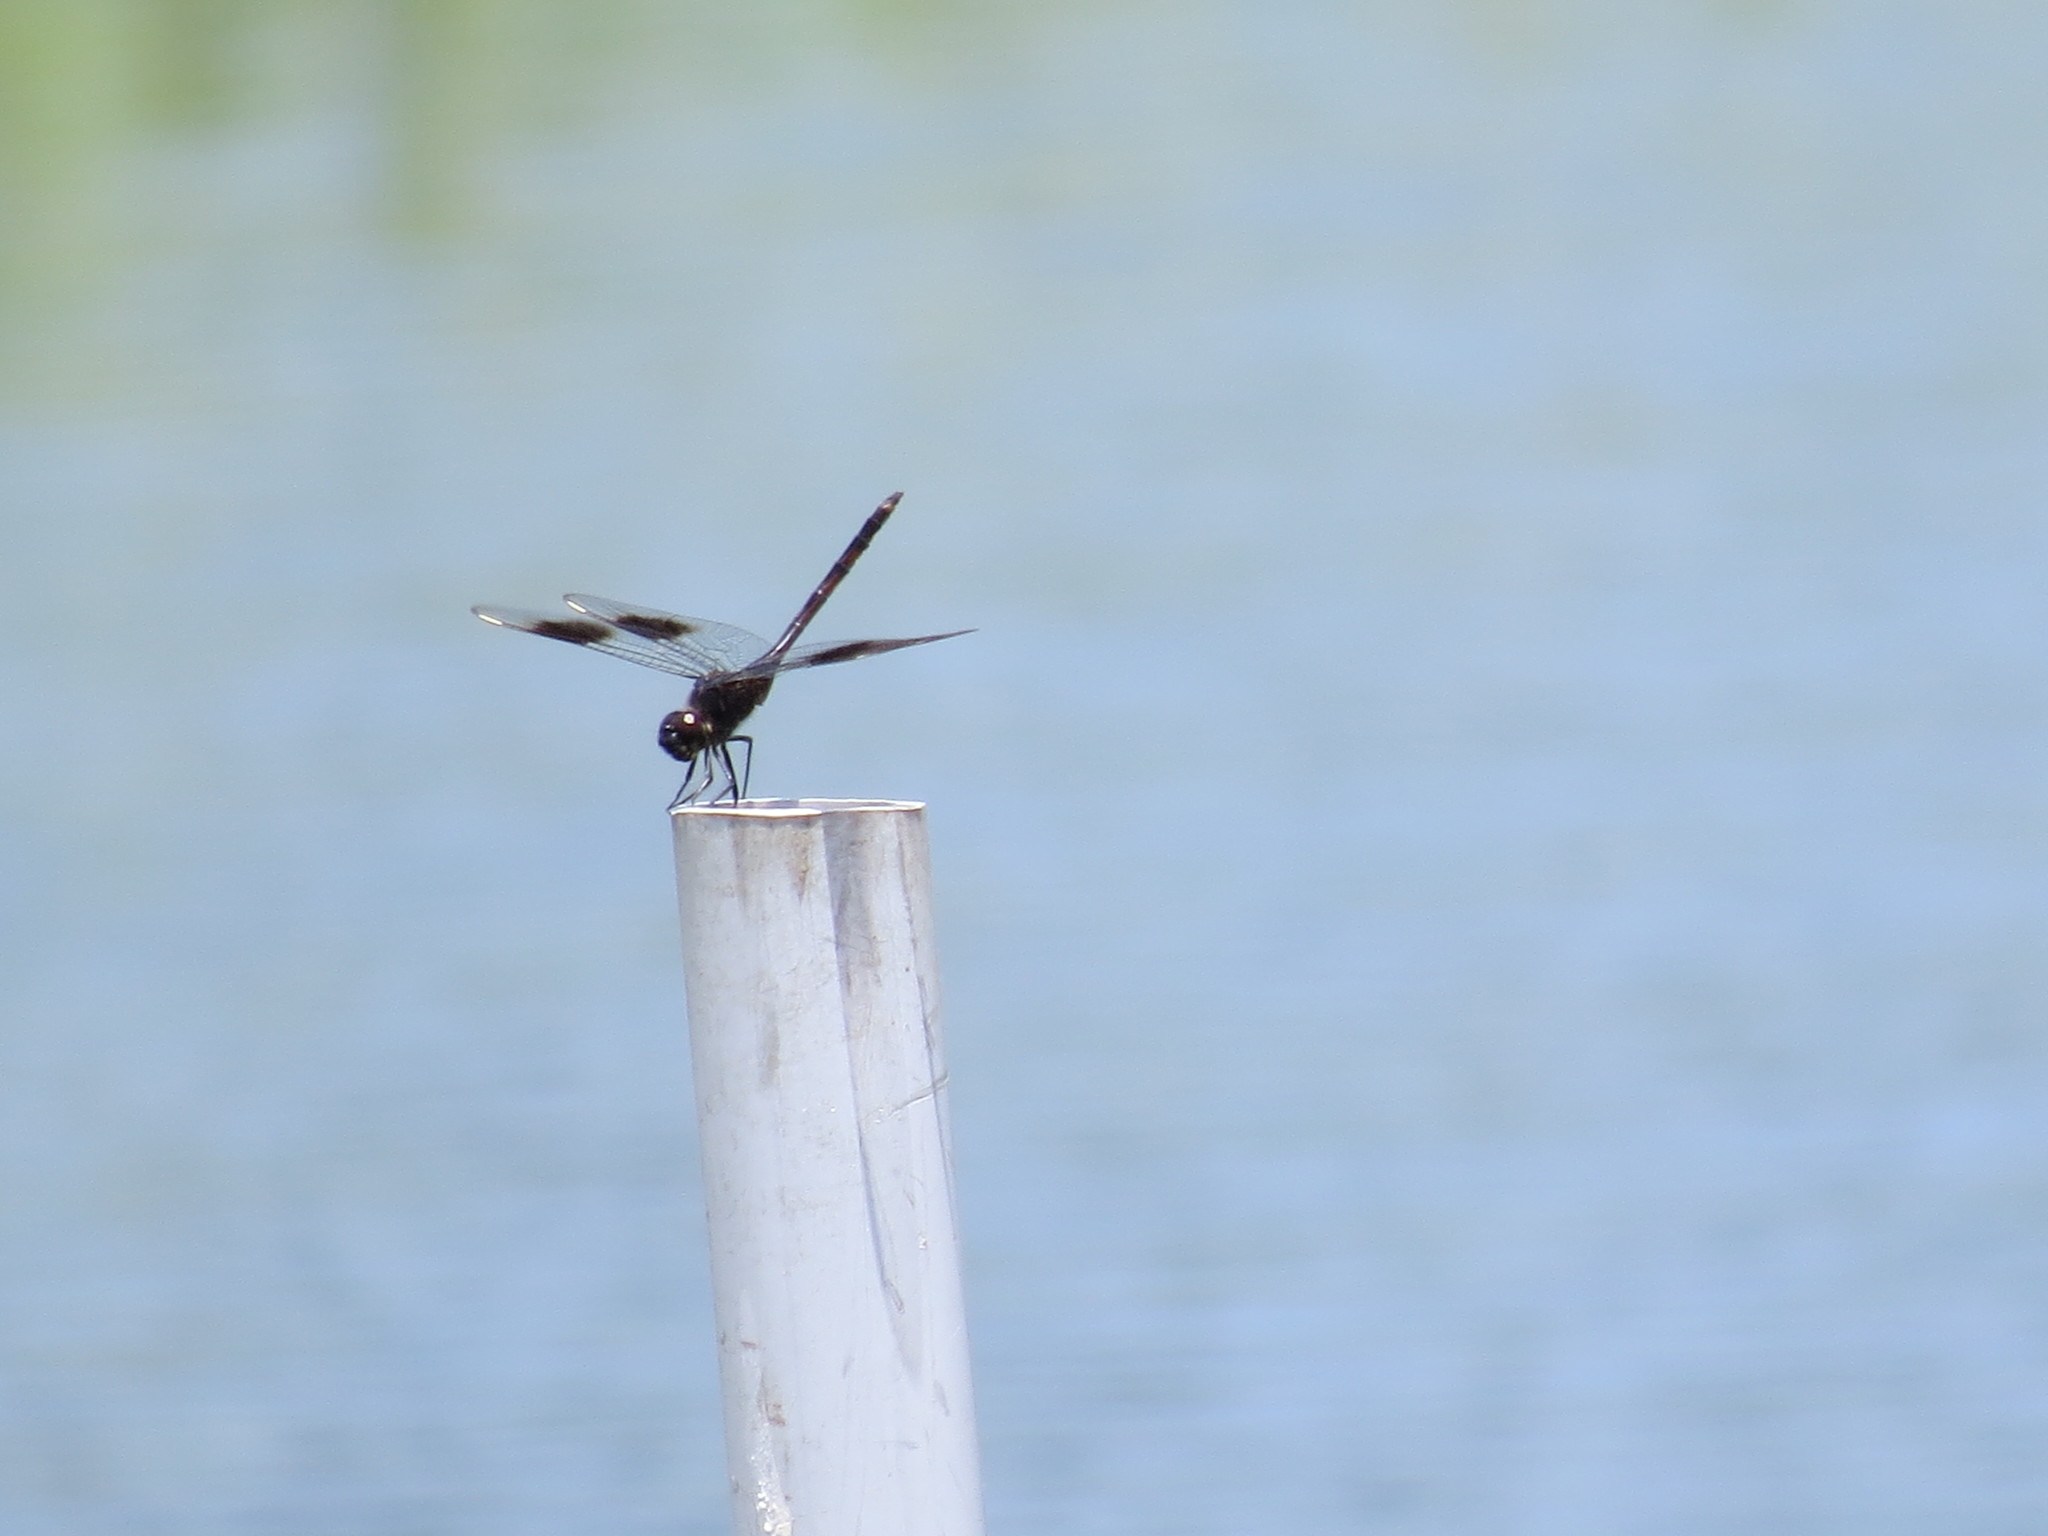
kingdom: Animalia
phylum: Arthropoda
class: Insecta
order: Odonata
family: Libellulidae
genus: Brachymesia
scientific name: Brachymesia gravida
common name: Four-spotted pennant
